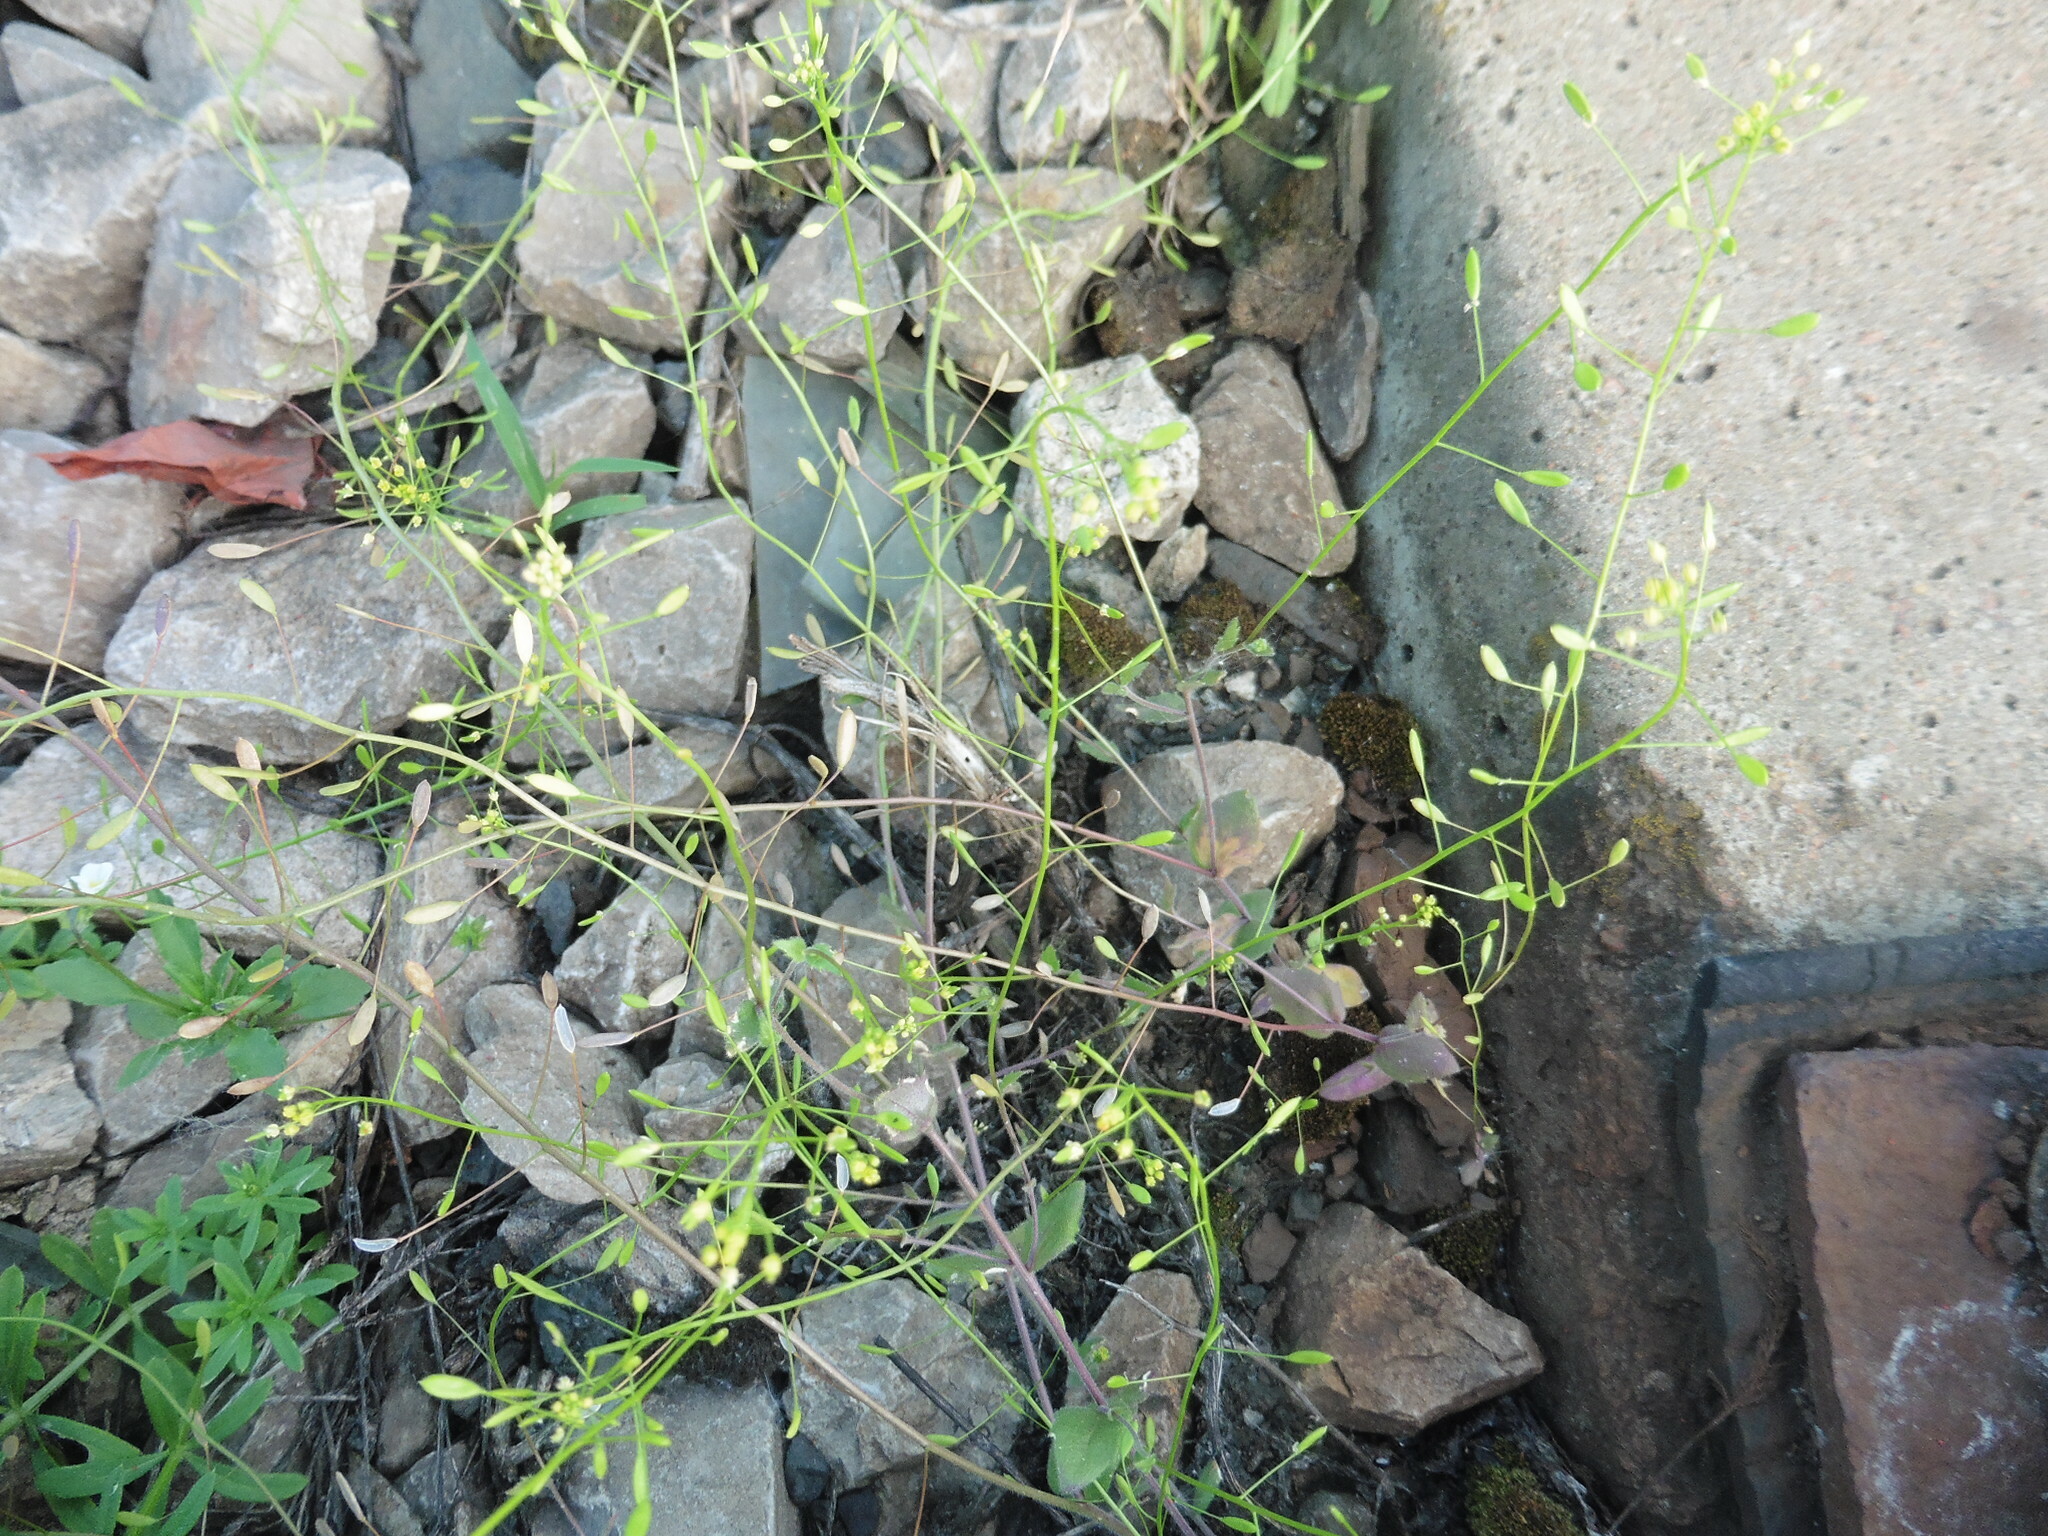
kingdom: Plantae
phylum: Tracheophyta
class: Magnoliopsida
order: Brassicales
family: Brassicaceae
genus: Draba
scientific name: Draba nemorosa
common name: Wood whitlow-grass
